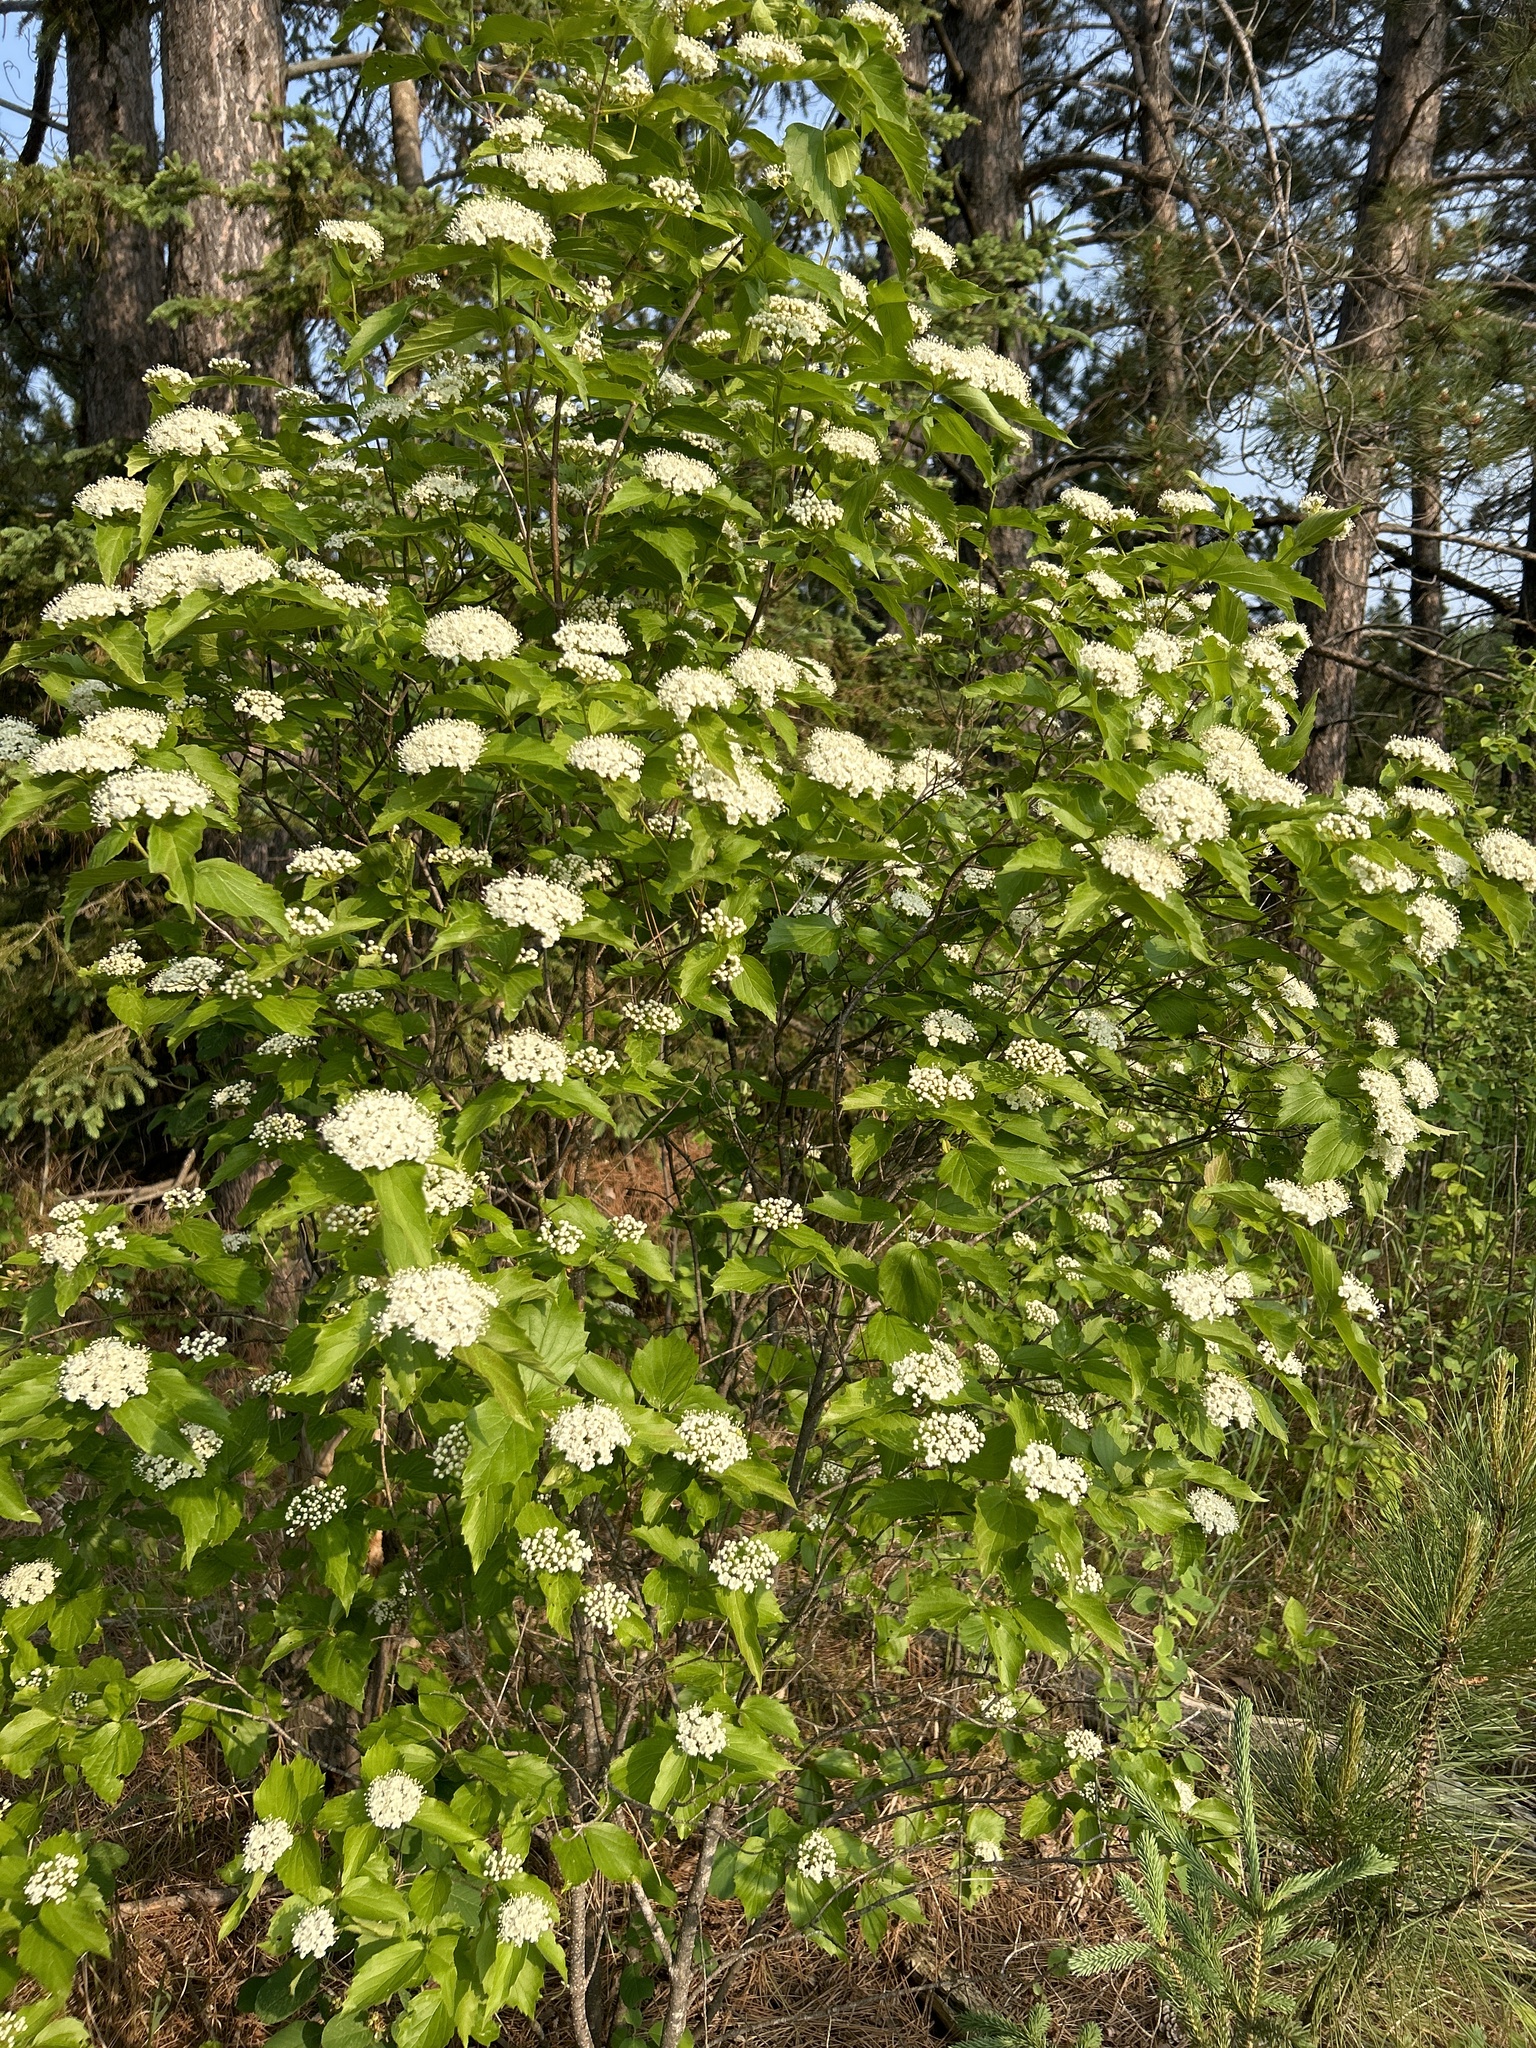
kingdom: Plantae
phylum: Tracheophyta
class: Magnoliopsida
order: Dipsacales
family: Viburnaceae
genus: Viburnum
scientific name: Viburnum rafinesqueanum
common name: Downy arrow-wood
